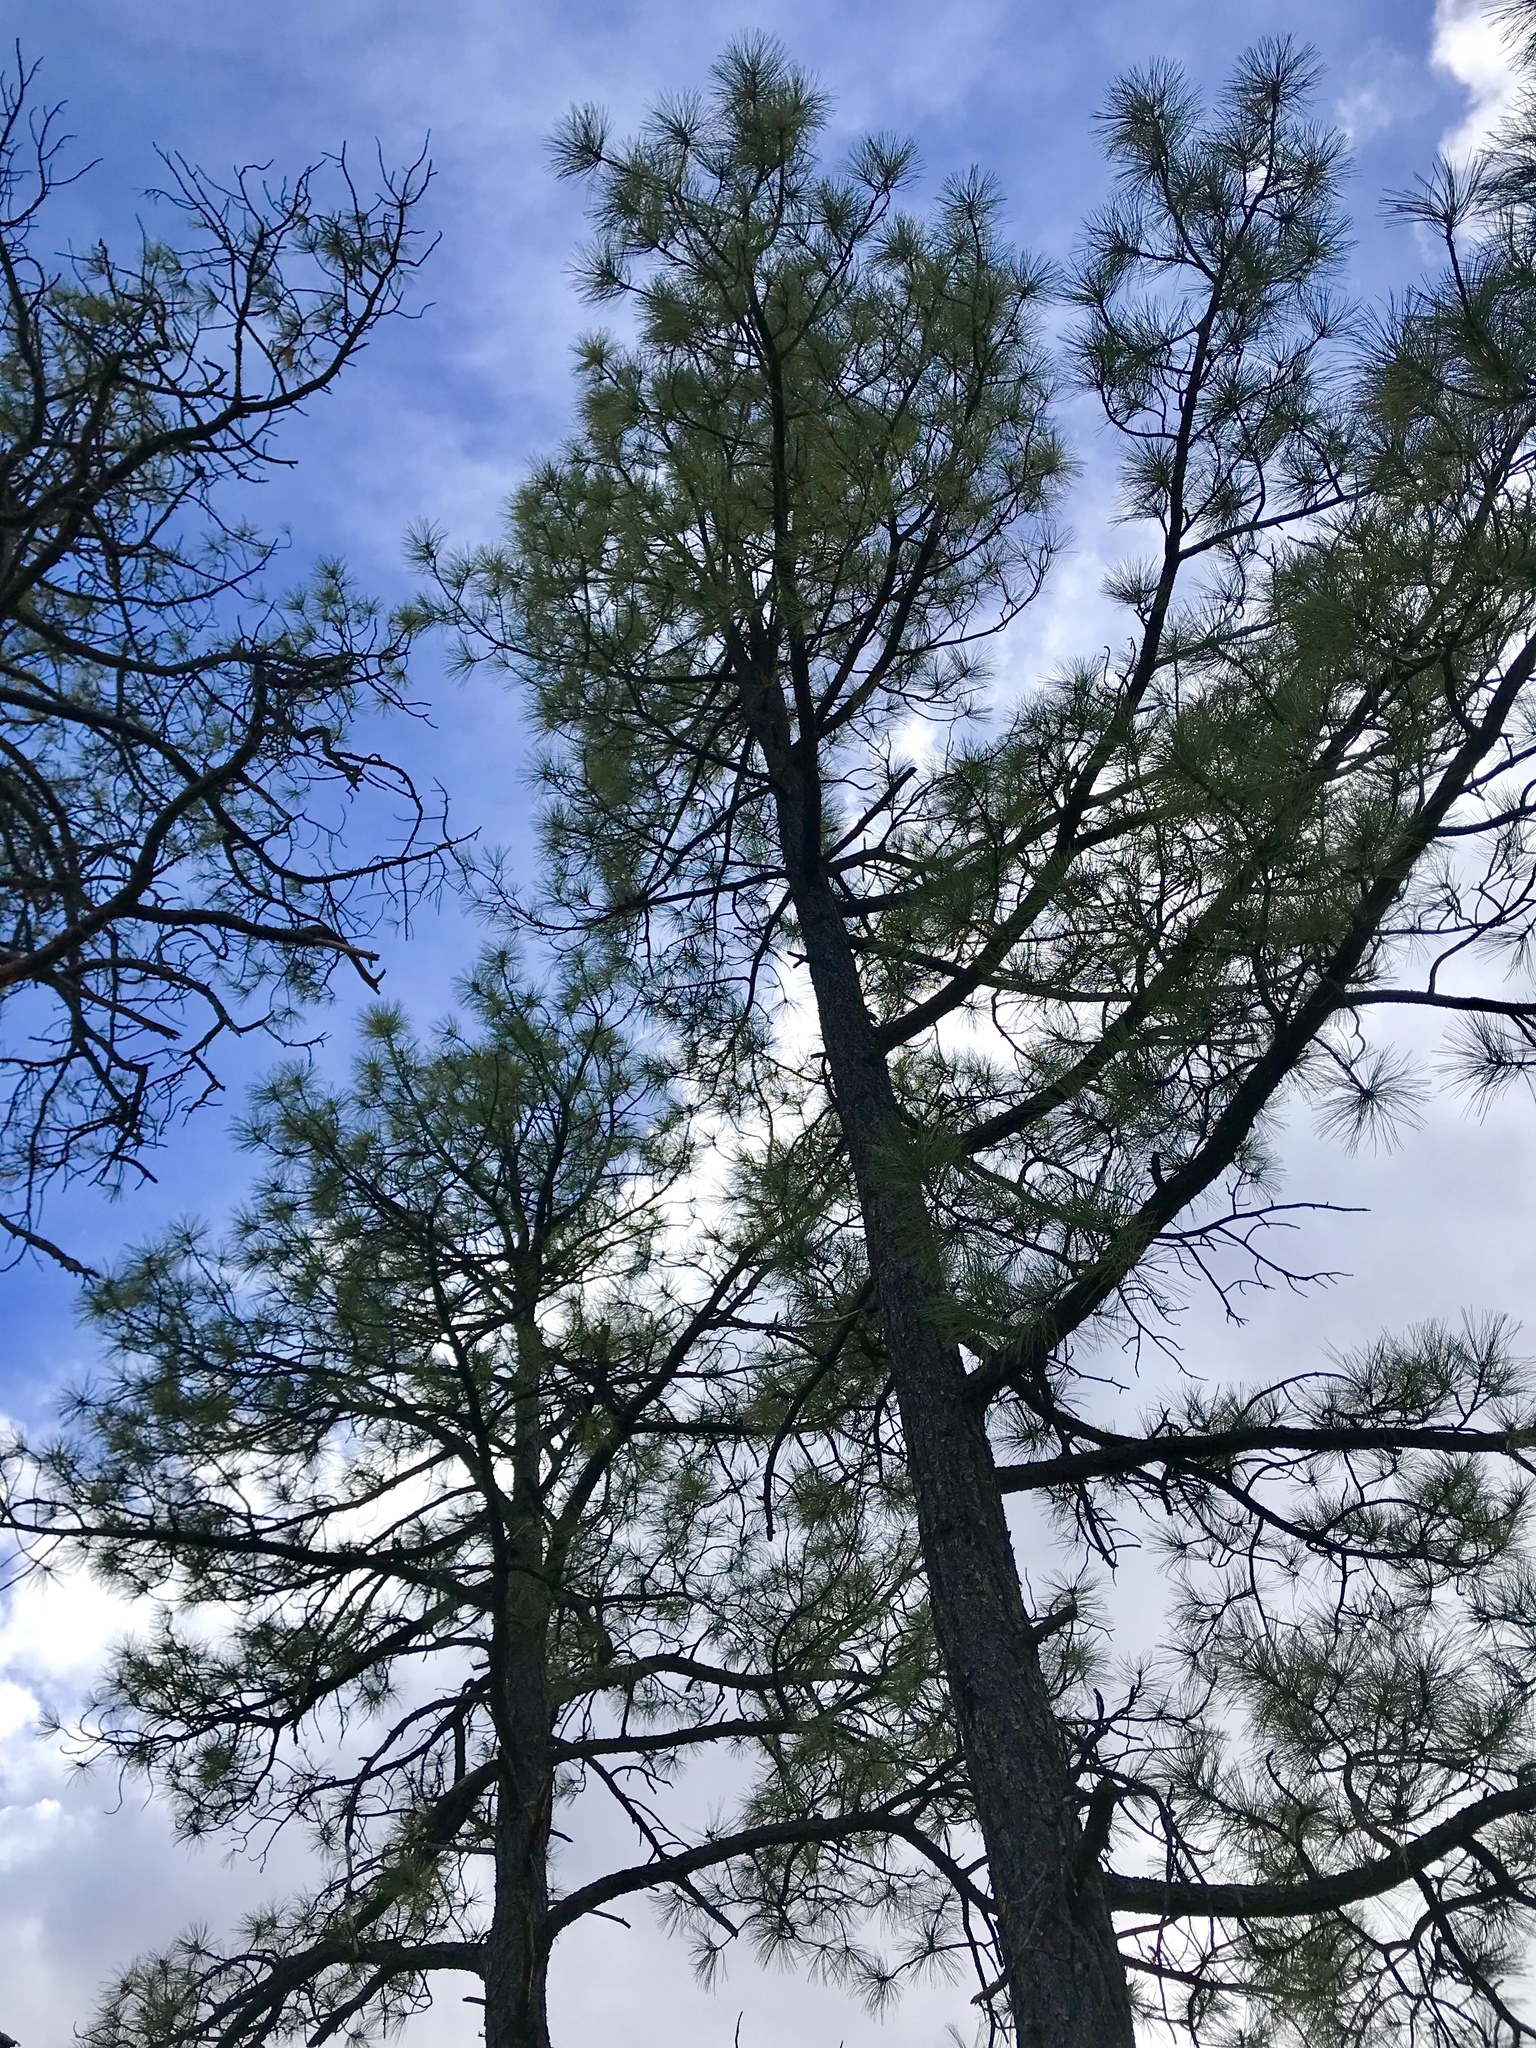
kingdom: Plantae
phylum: Tracheophyta
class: Pinopsida
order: Pinales
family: Pinaceae
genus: Pinus
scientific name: Pinus ponderosa
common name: Western yellow-pine
